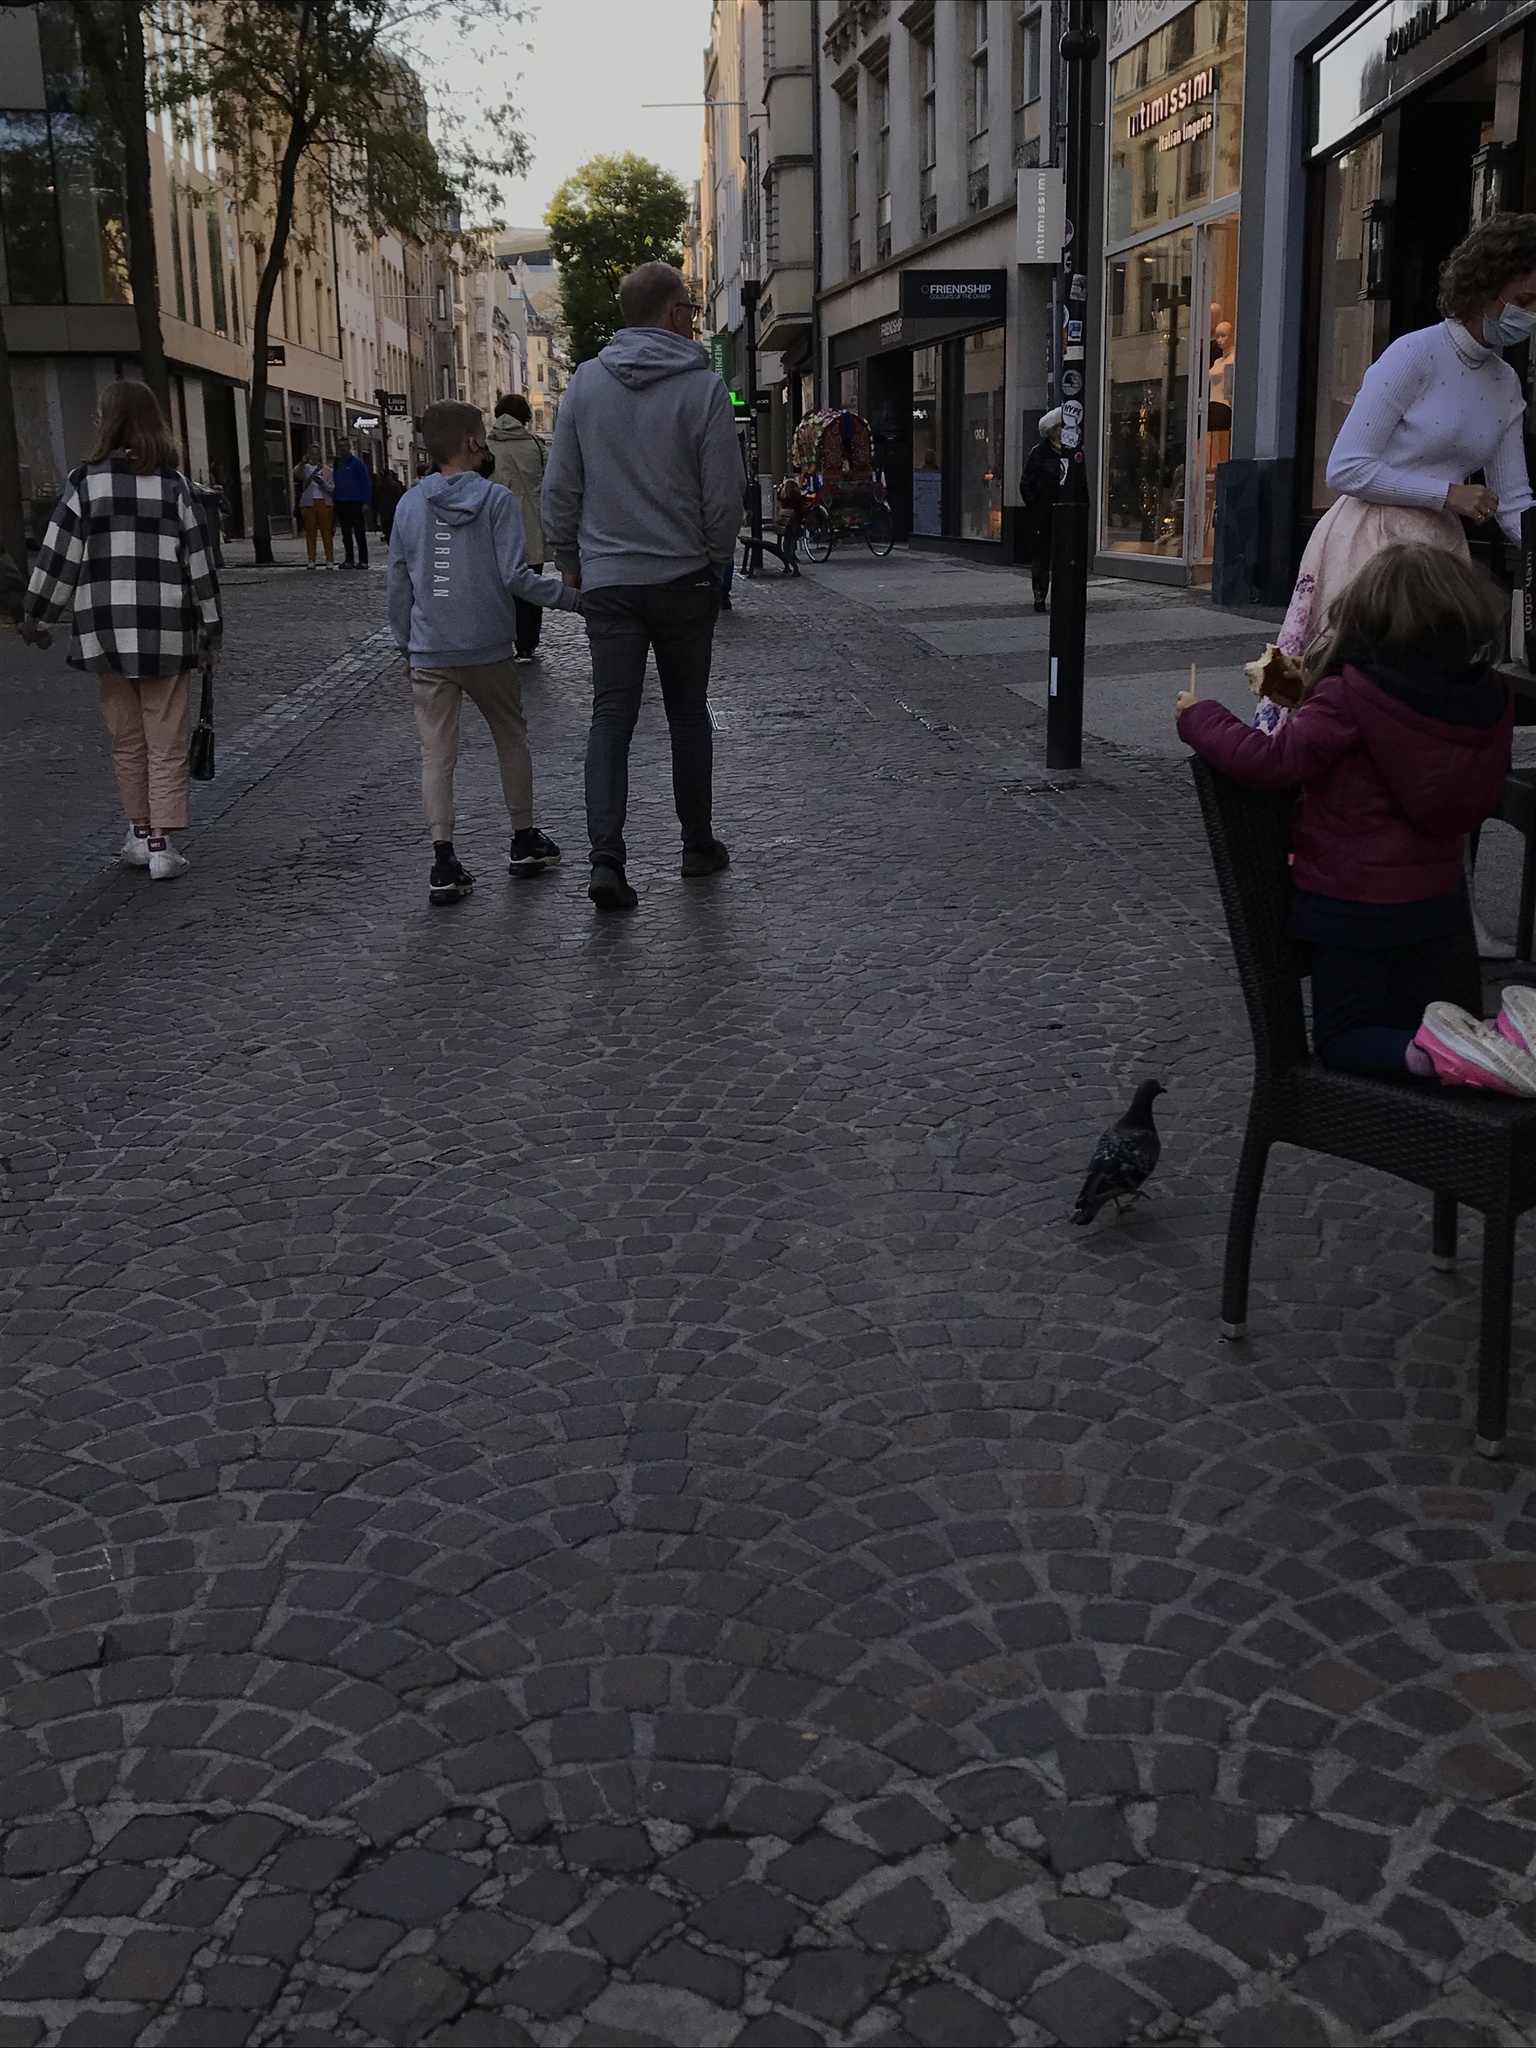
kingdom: Animalia
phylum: Chordata
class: Aves
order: Columbiformes
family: Columbidae
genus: Columba
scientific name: Columba livia
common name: Rock pigeon
